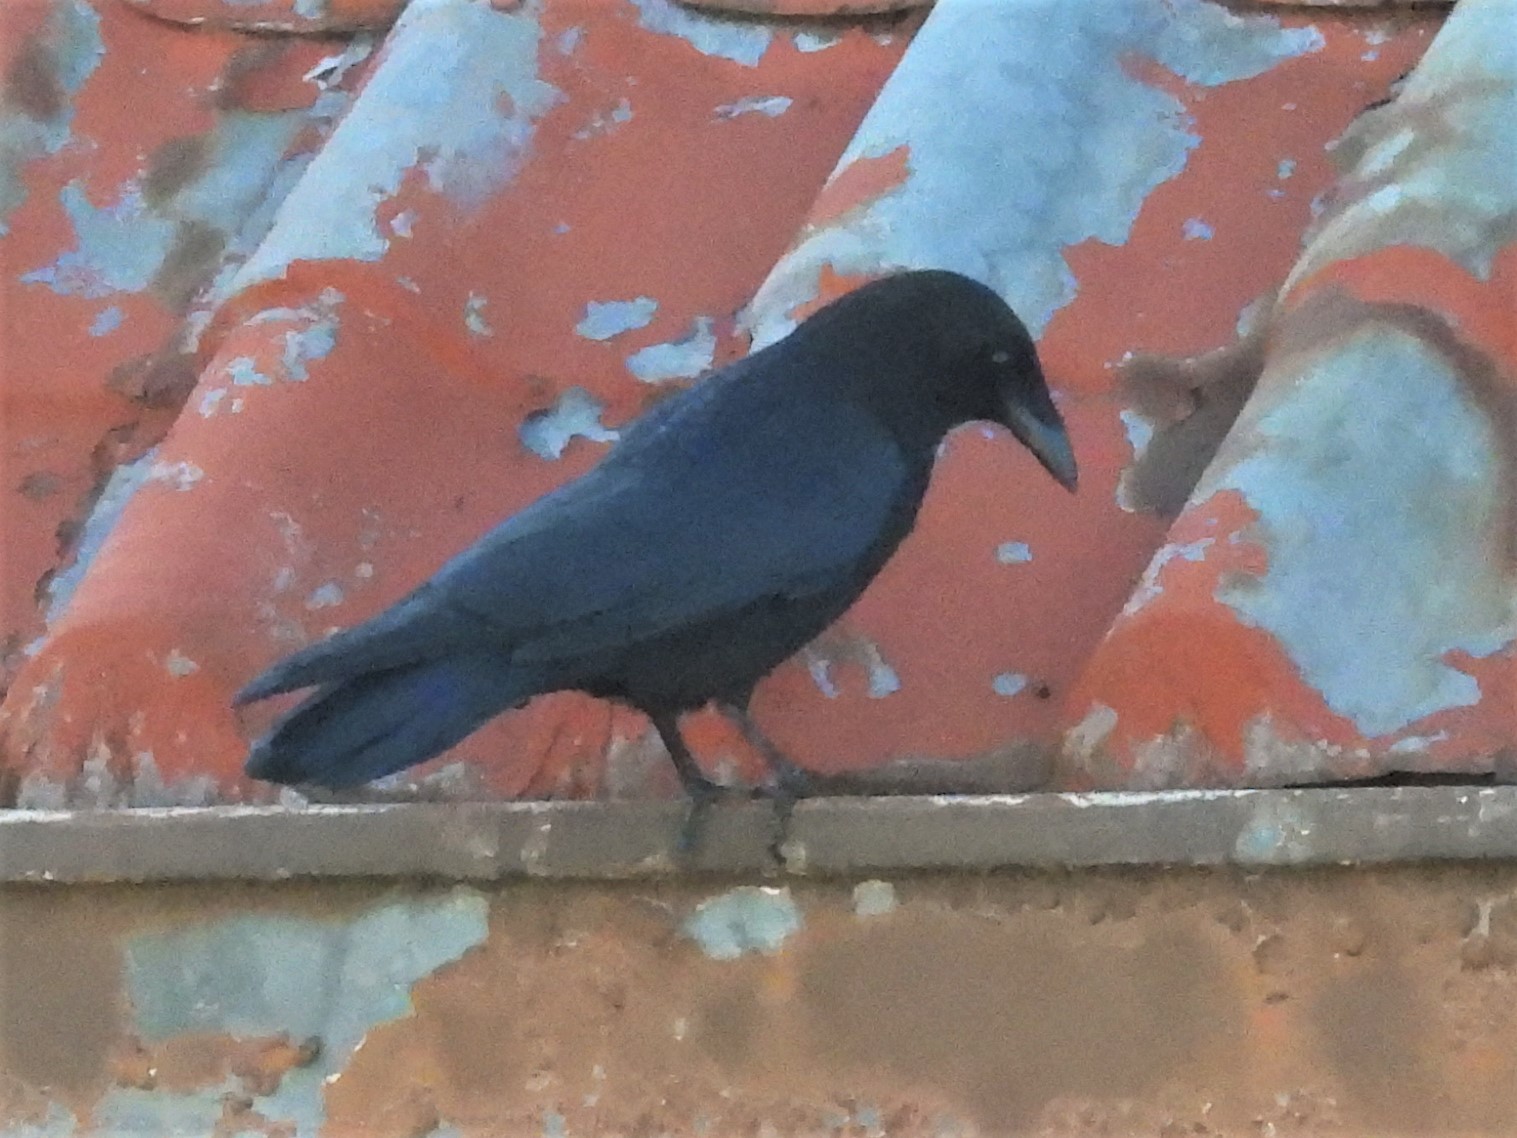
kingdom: Animalia
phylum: Chordata
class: Aves
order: Passeriformes
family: Corvidae
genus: Corvus
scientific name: Corvus brachyrhynchos
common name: American crow
